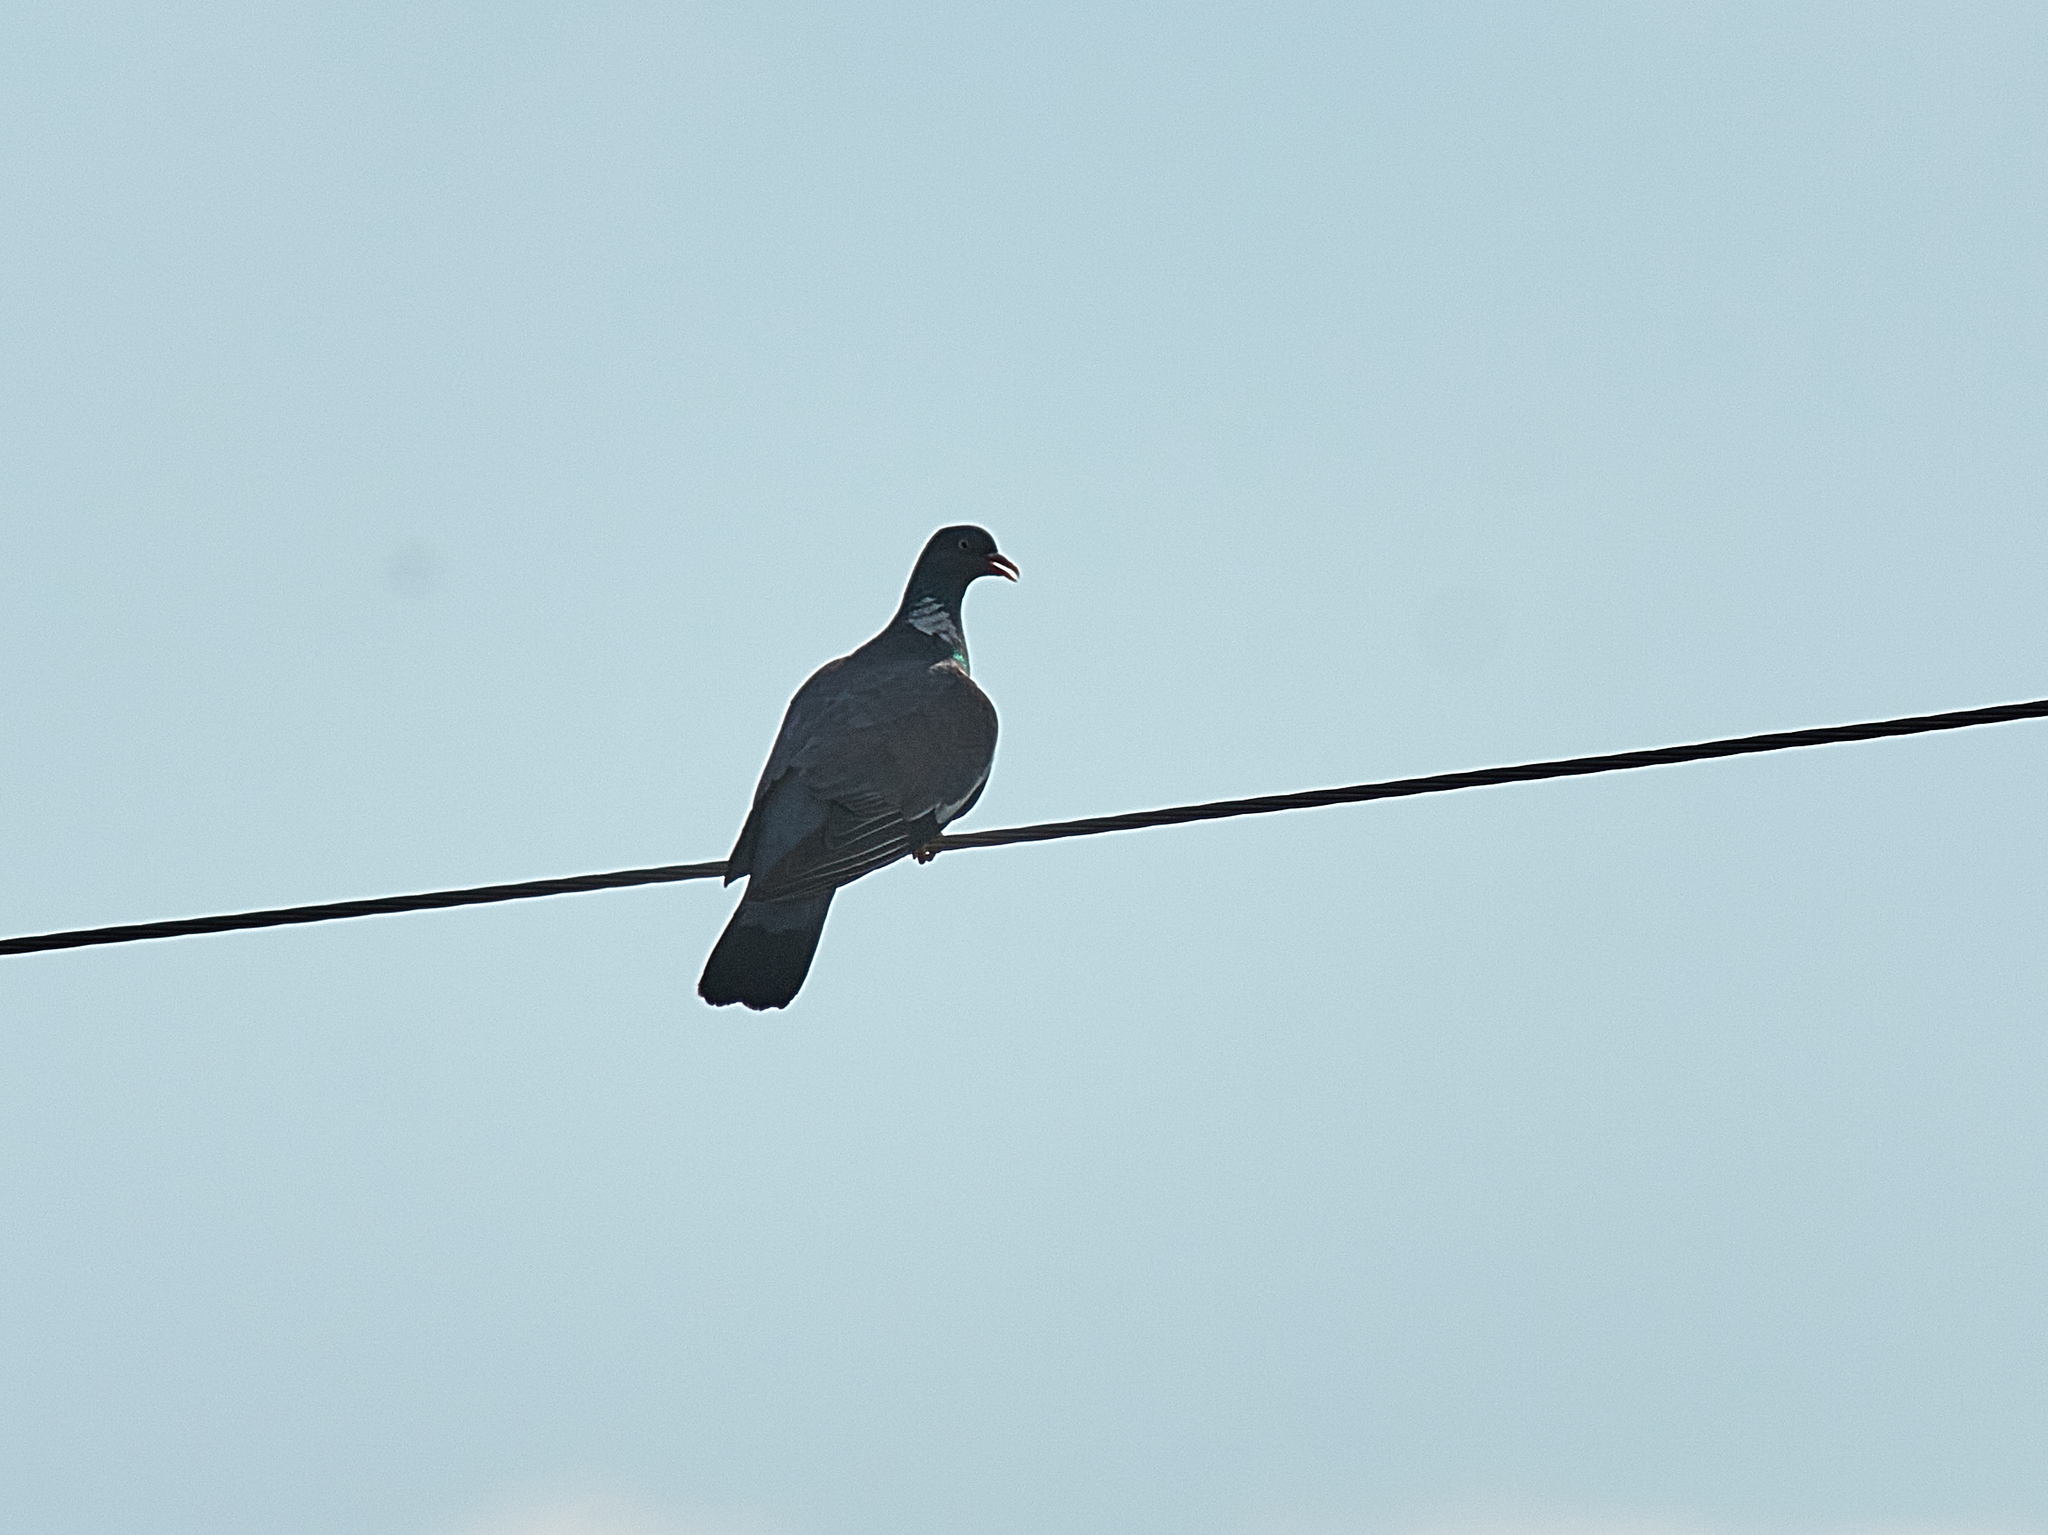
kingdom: Animalia
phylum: Chordata
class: Aves
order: Columbiformes
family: Columbidae
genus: Columba
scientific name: Columba palumbus
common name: Common wood pigeon
